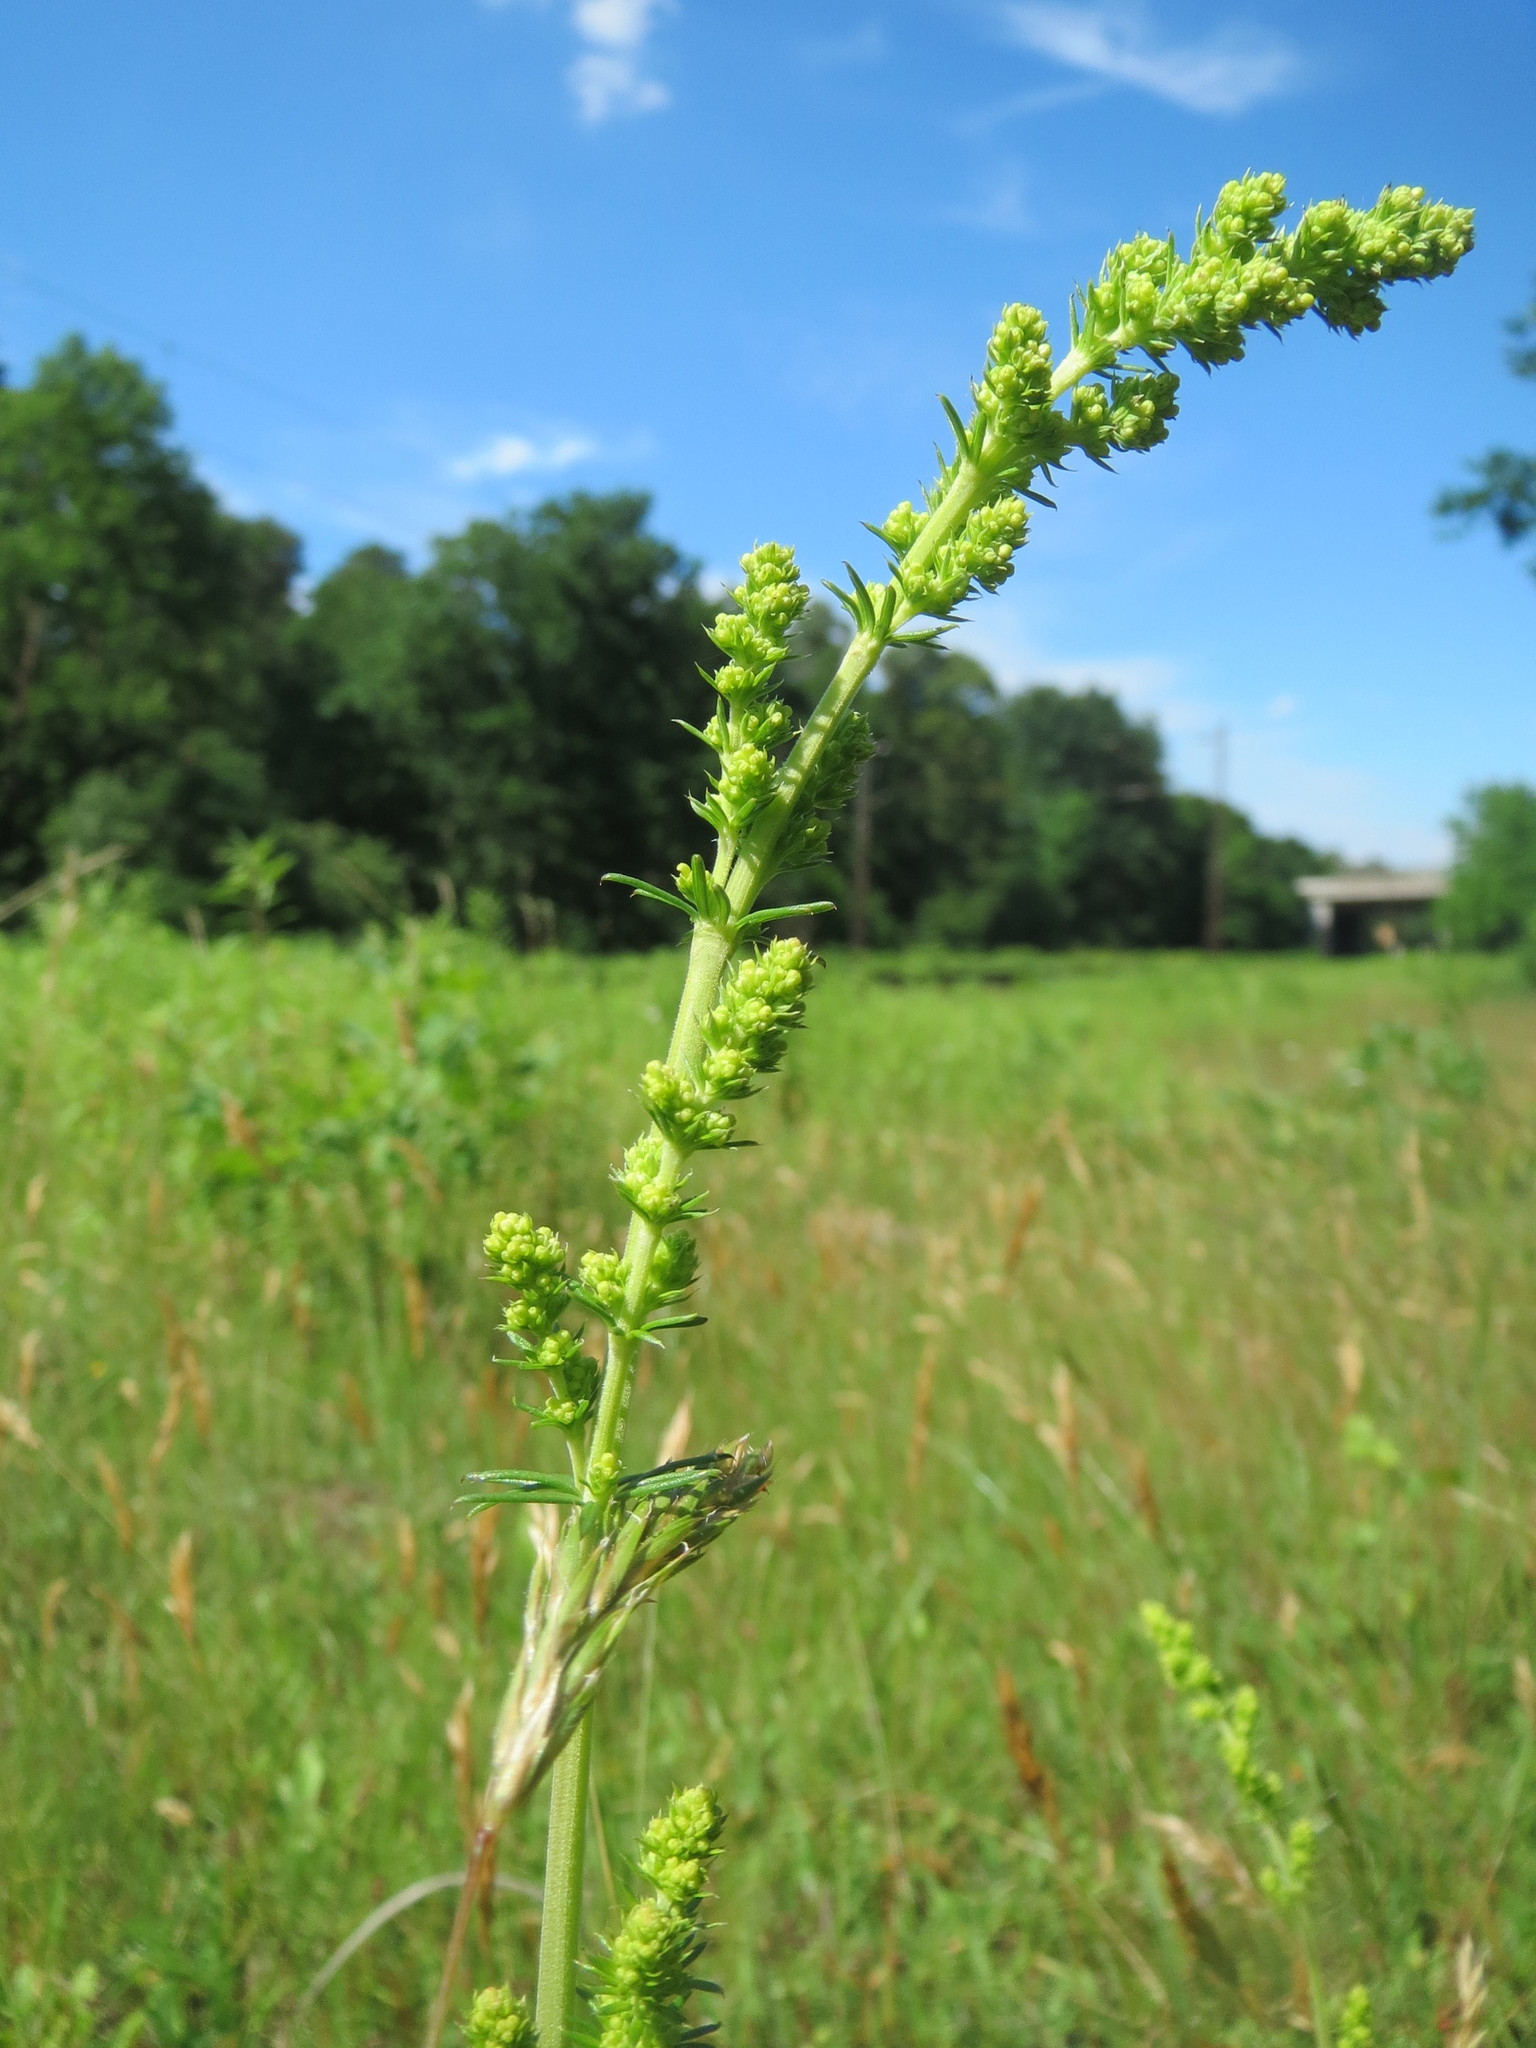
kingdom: Plantae
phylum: Tracheophyta
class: Magnoliopsida
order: Gentianales
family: Rubiaceae
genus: Galium
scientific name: Galium verum
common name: Lady's bedstraw
